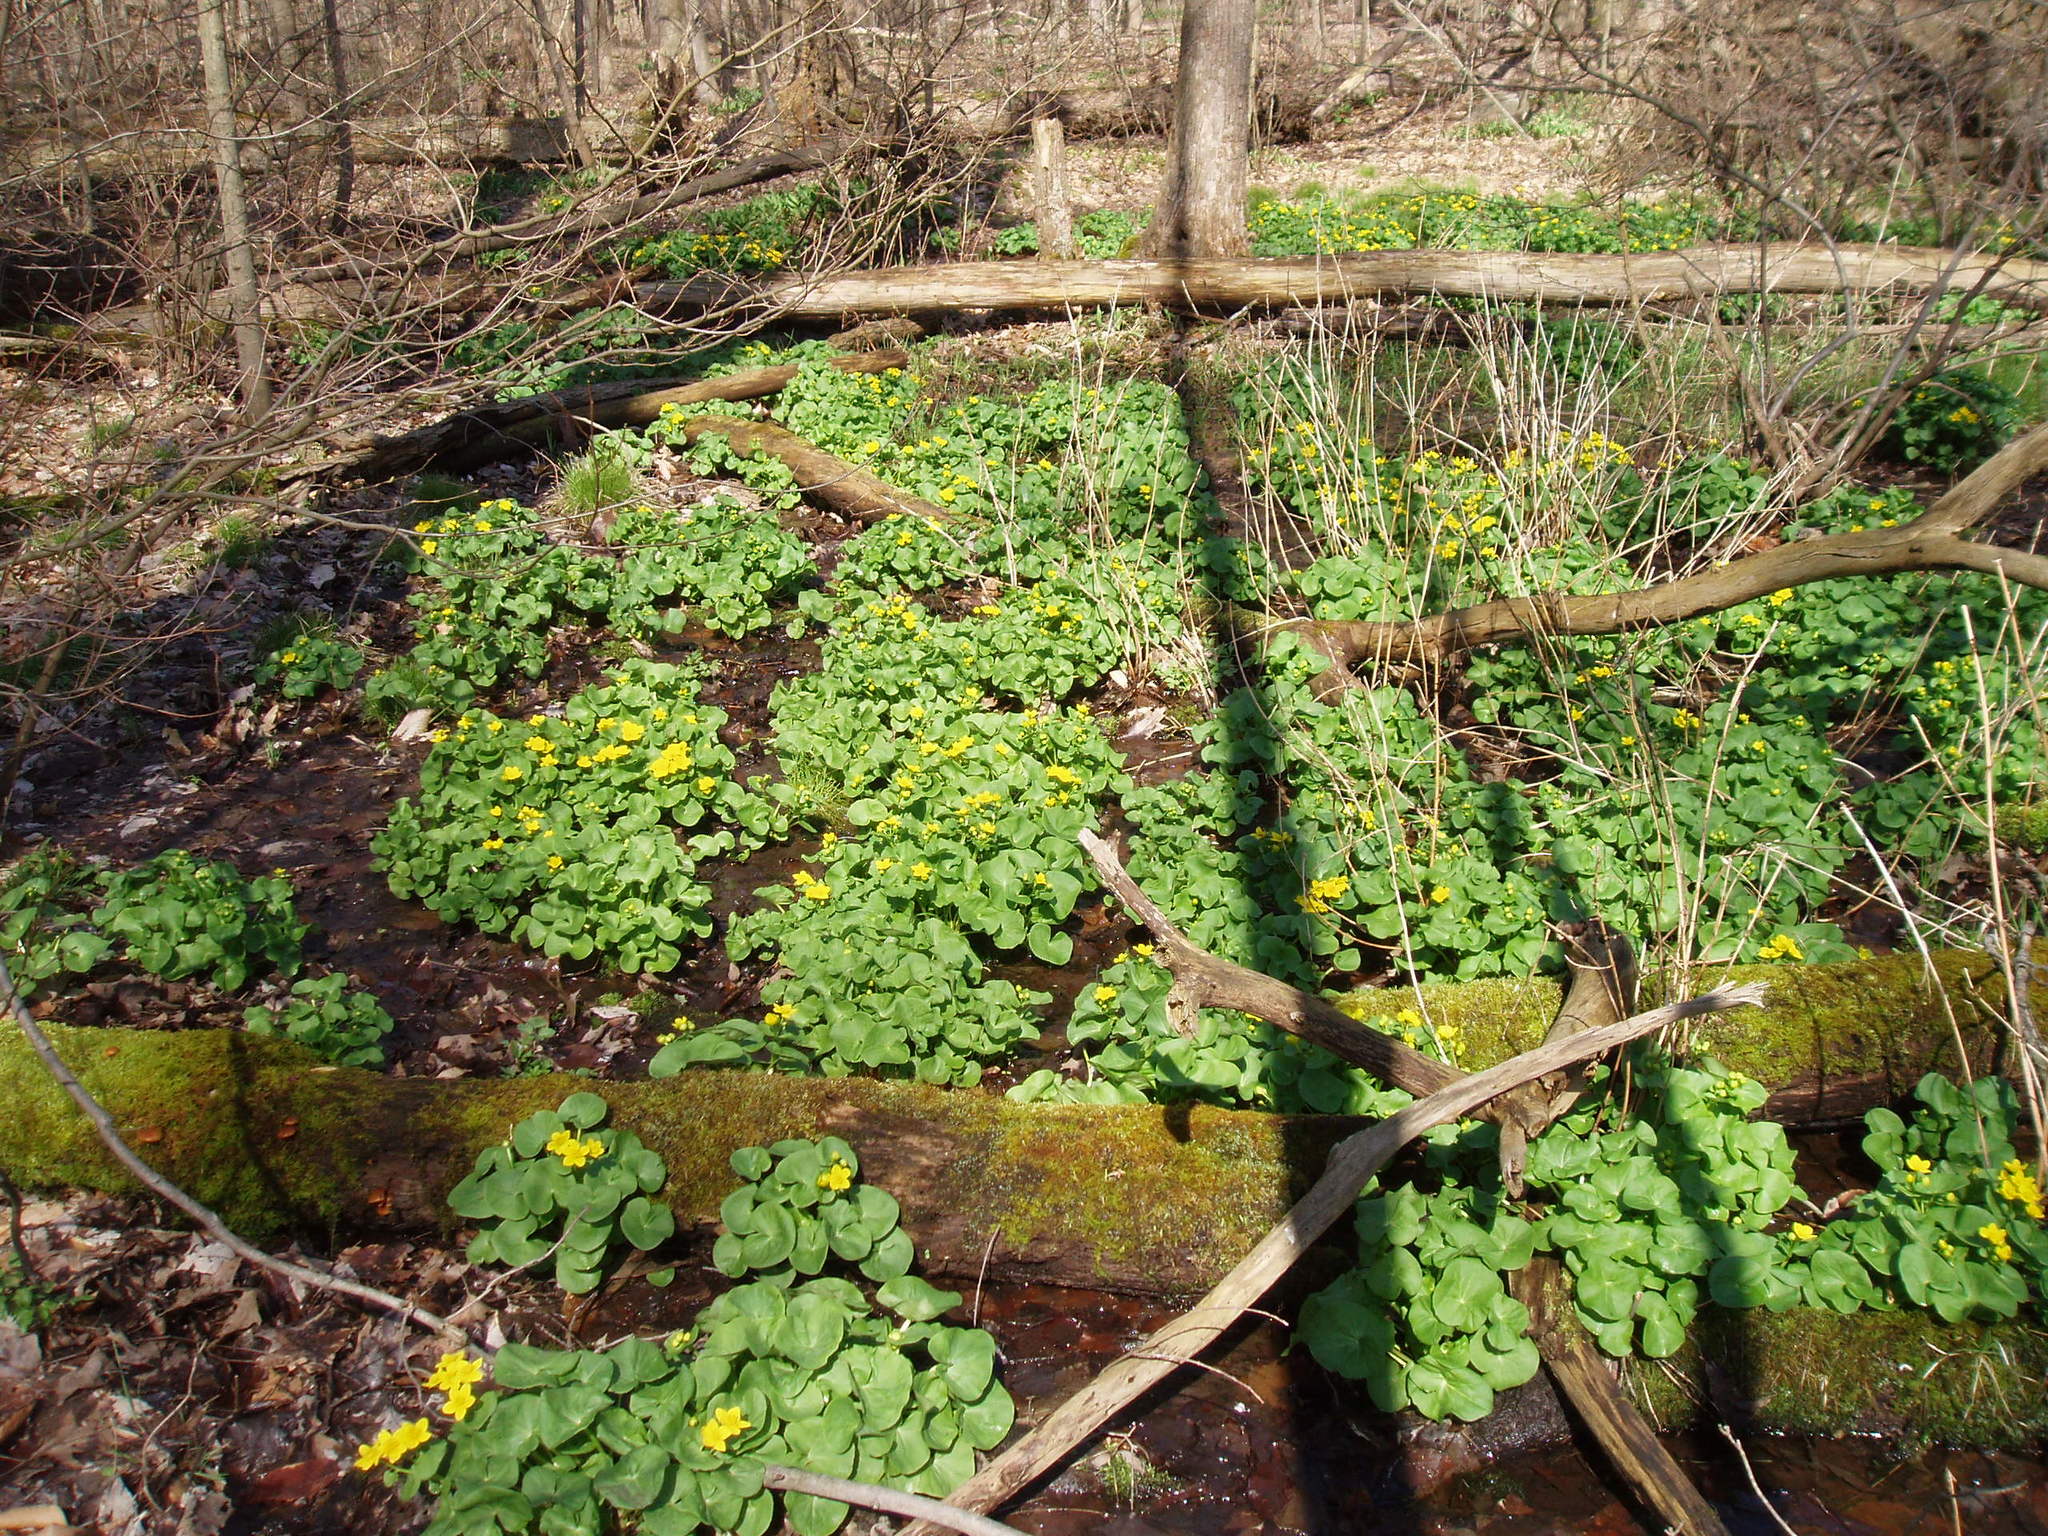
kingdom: Plantae
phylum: Tracheophyta
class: Magnoliopsida
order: Ranunculales
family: Ranunculaceae
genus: Caltha
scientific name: Caltha palustris
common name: Marsh marigold
